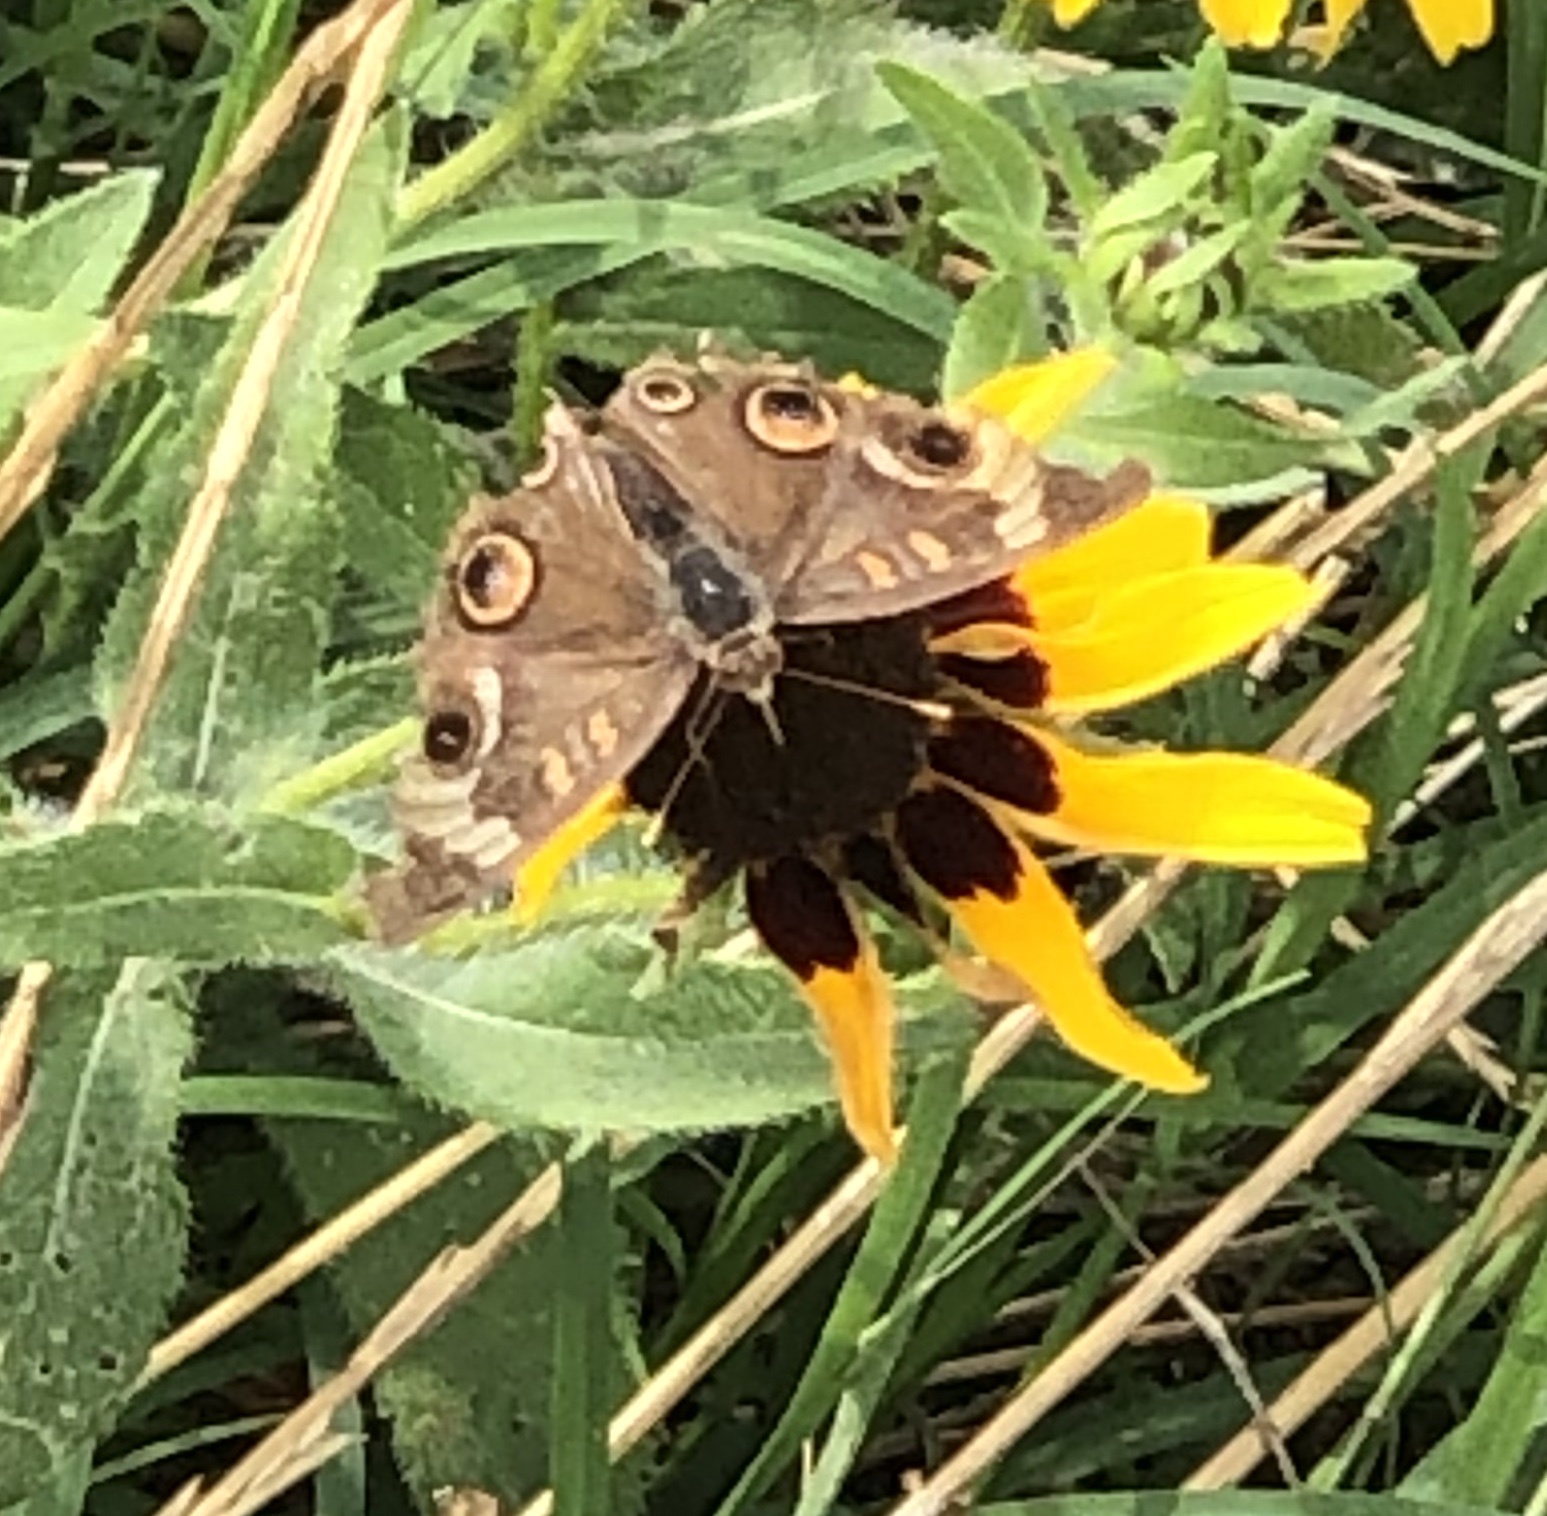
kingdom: Animalia
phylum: Arthropoda
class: Insecta
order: Lepidoptera
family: Nymphalidae
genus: Junonia
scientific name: Junonia coenia
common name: Common buckeye
